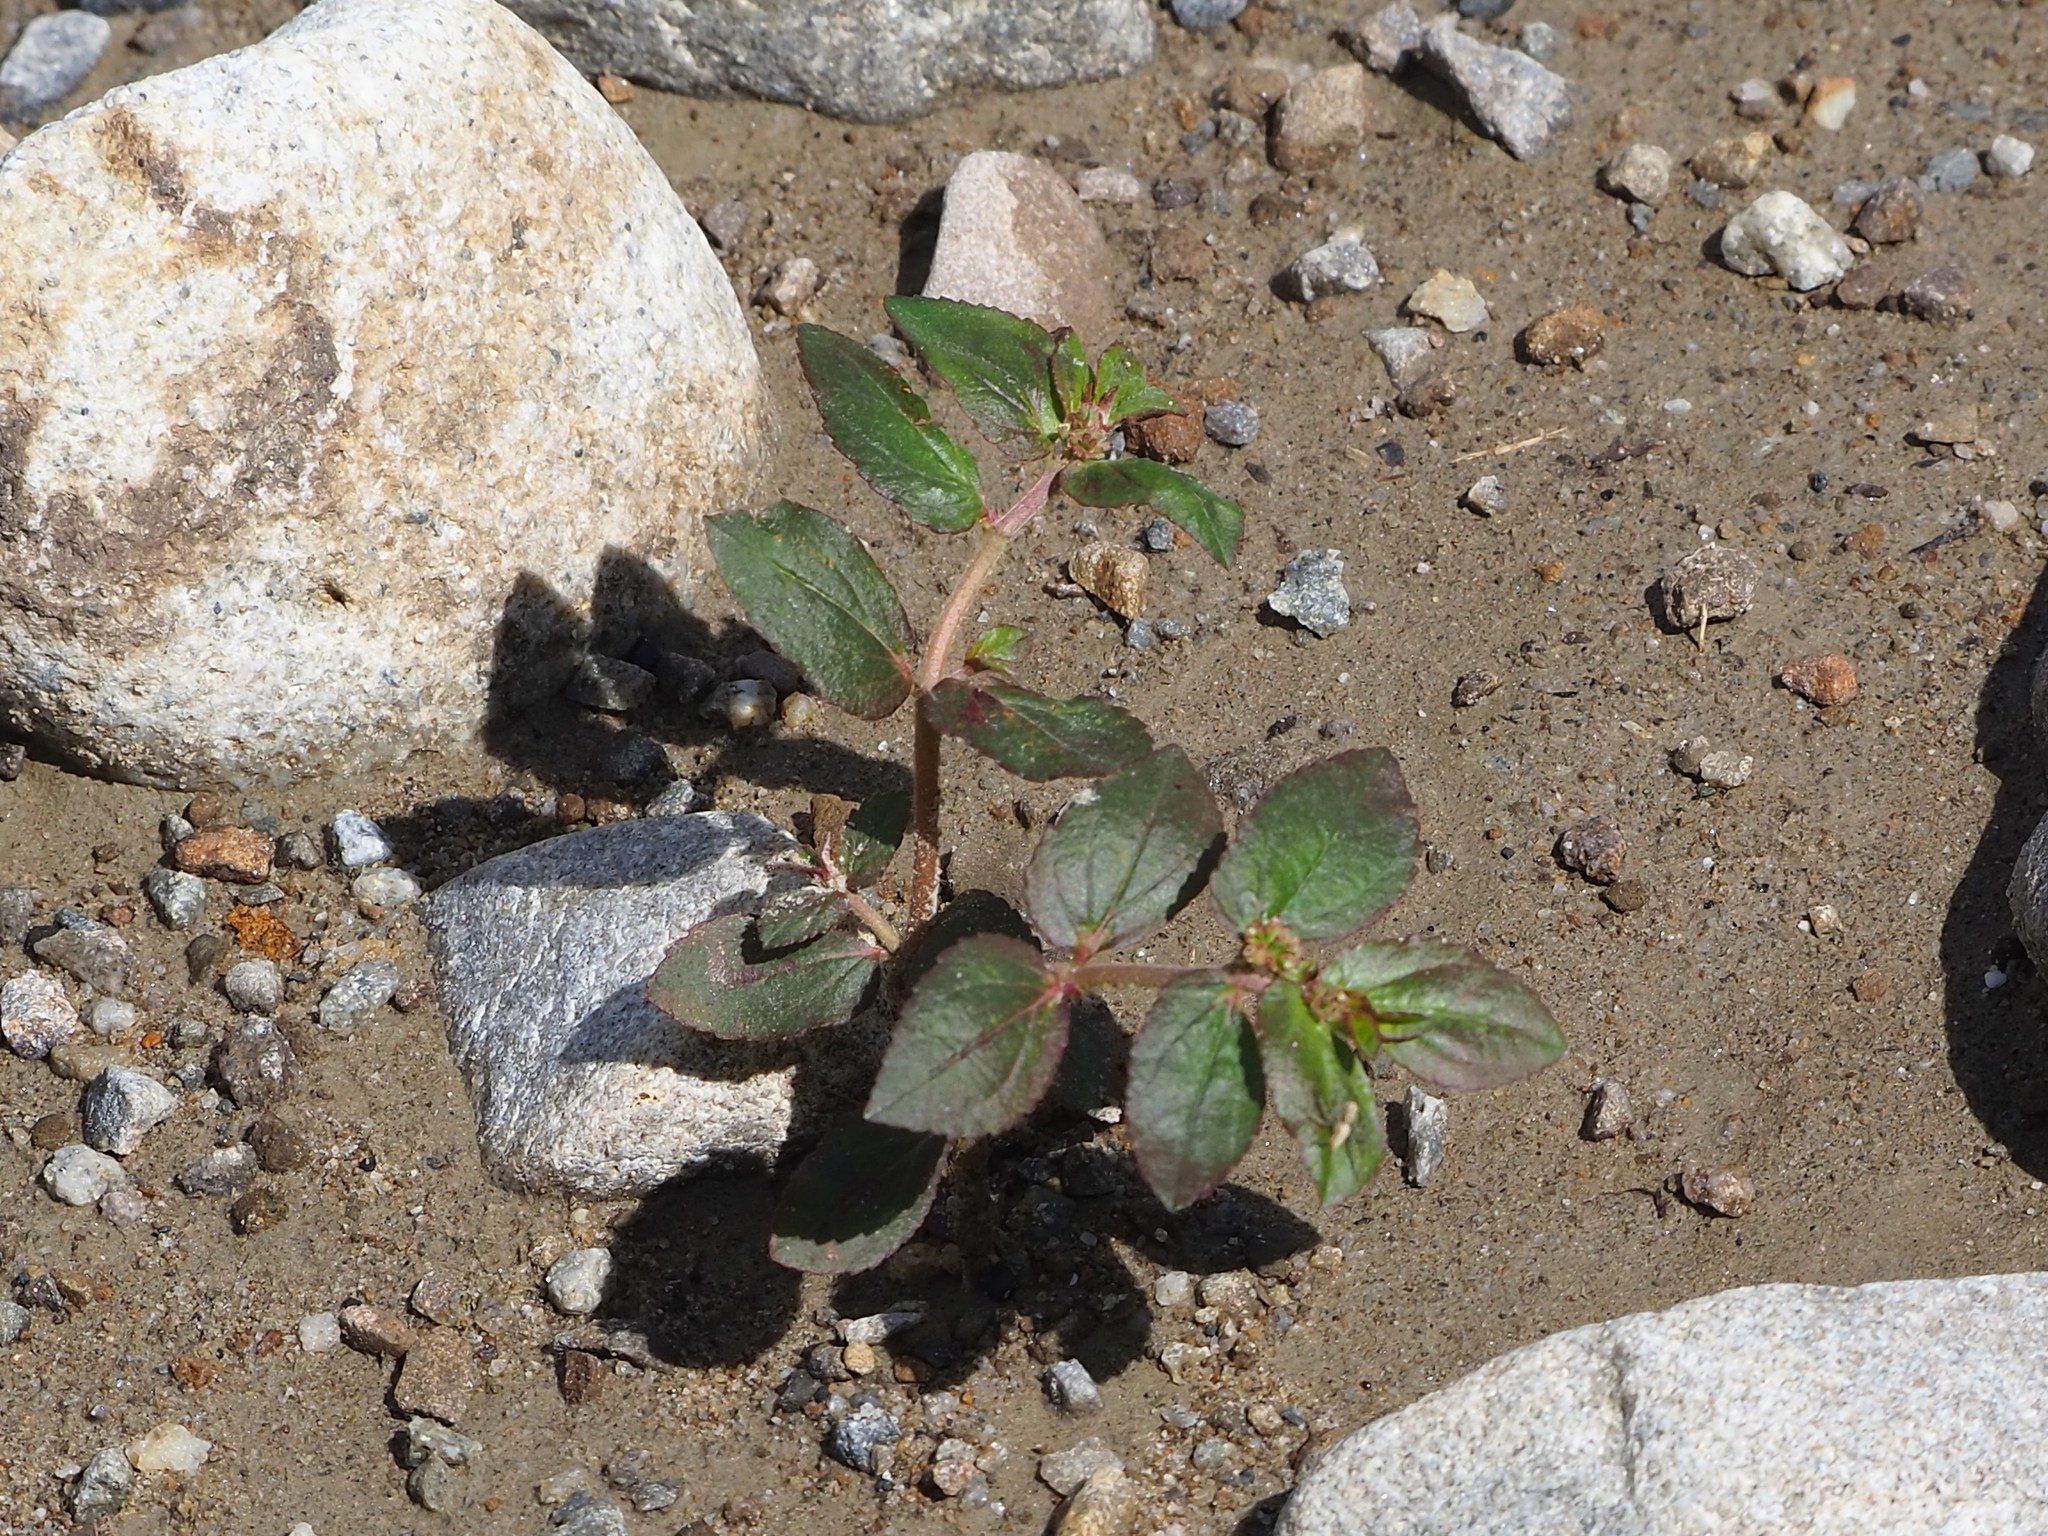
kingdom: Plantae
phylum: Tracheophyta
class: Magnoliopsida
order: Malpighiales
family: Euphorbiaceae
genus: Euphorbia
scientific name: Euphorbia hirta
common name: Pillpod sandmat
